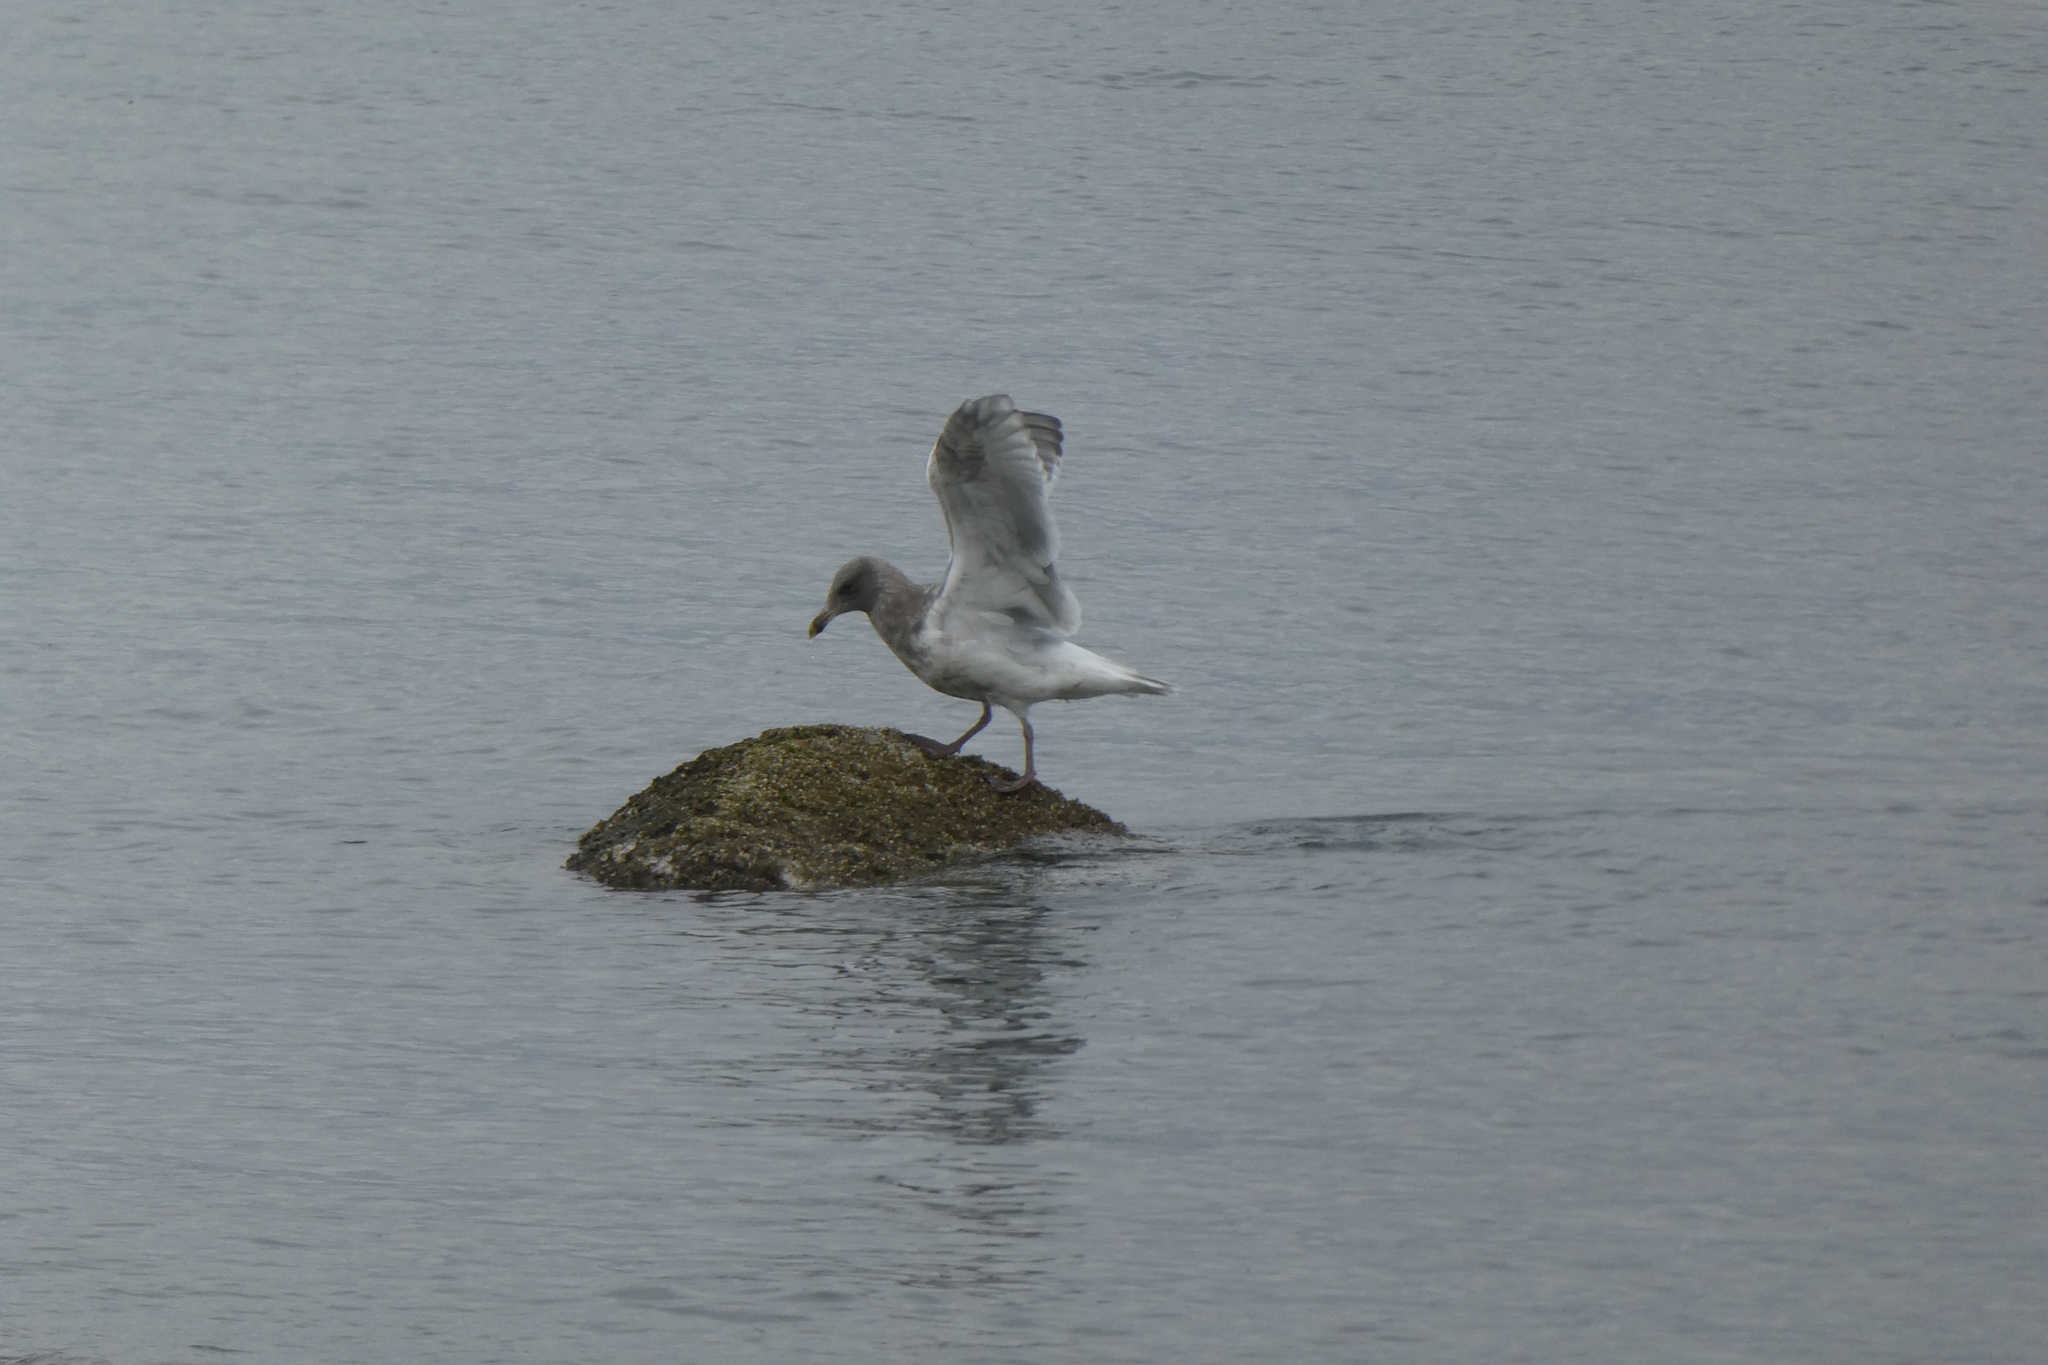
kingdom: Animalia
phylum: Chordata
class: Aves
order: Charadriiformes
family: Laridae
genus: Larus
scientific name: Larus
